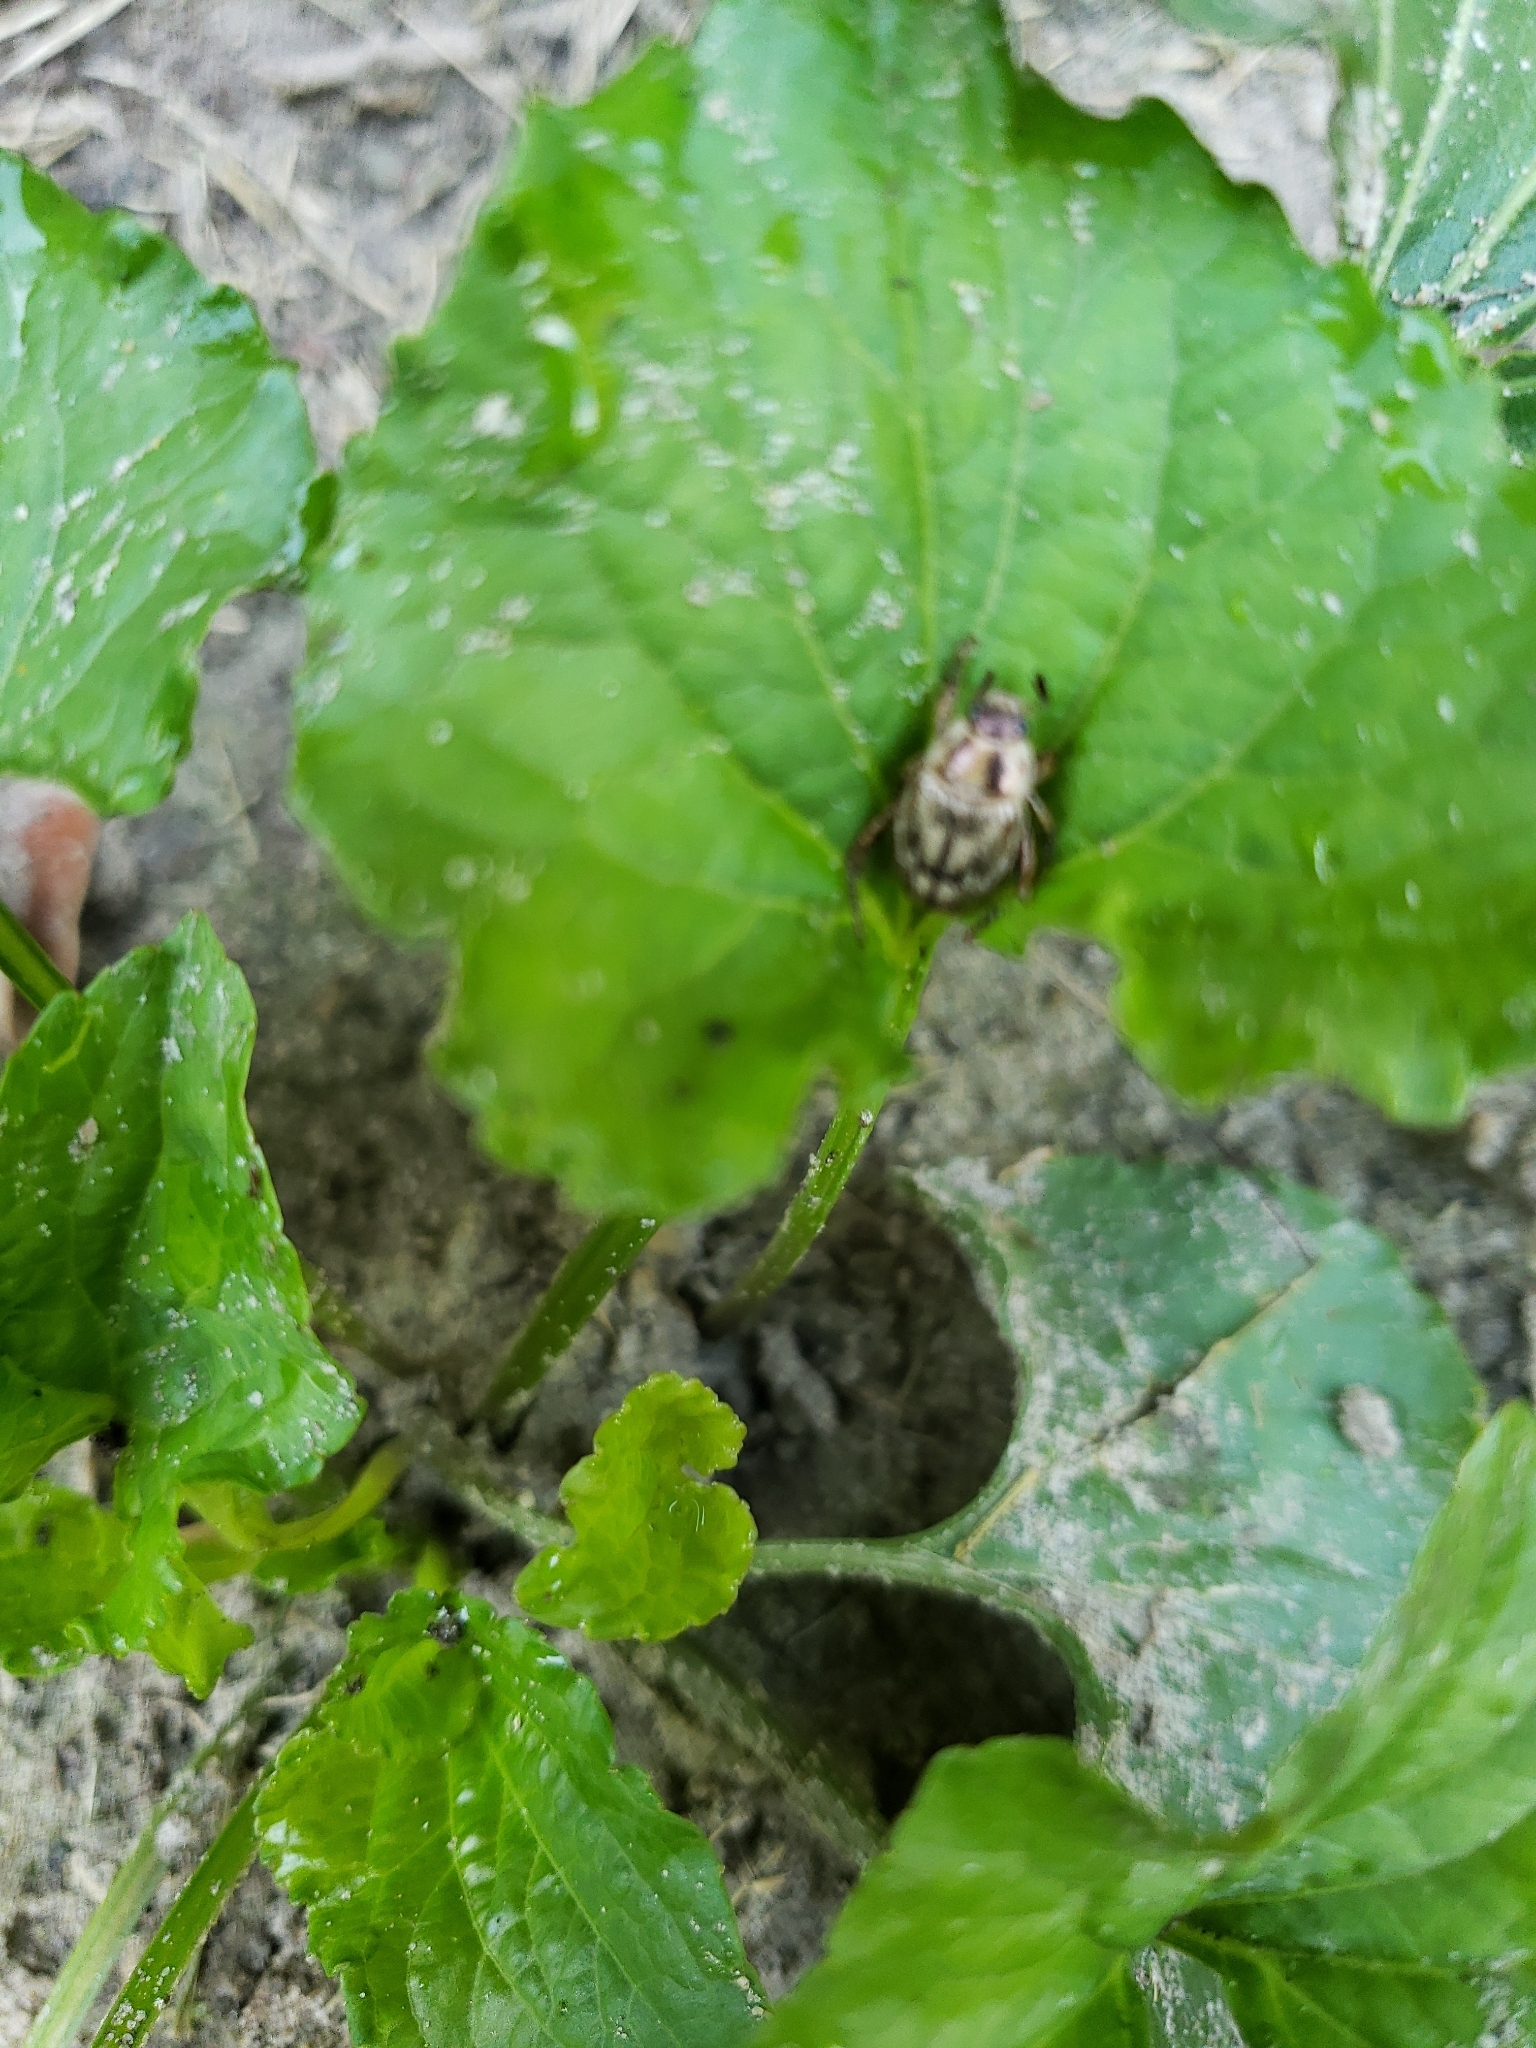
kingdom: Animalia
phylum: Arthropoda
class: Insecta
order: Coleoptera
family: Scarabaeidae
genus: Exomala
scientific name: Exomala orientalis
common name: Oriental beetle
